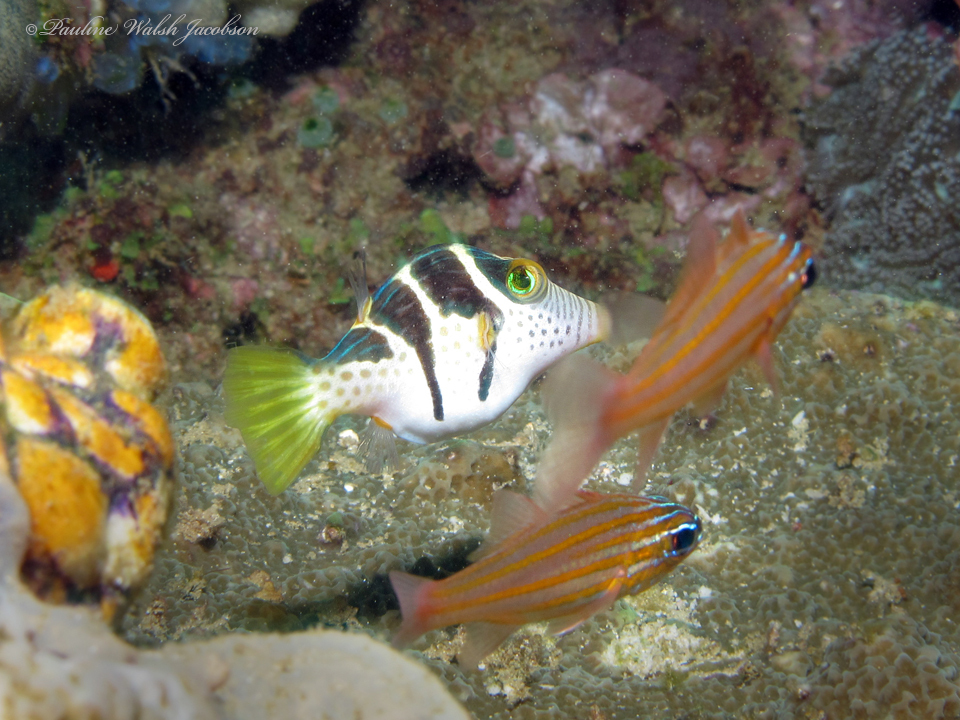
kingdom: Animalia
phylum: Chordata
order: Tetraodontiformes
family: Tetraodontidae
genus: Canthigaster
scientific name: Canthigaster valentini
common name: Banded toby
